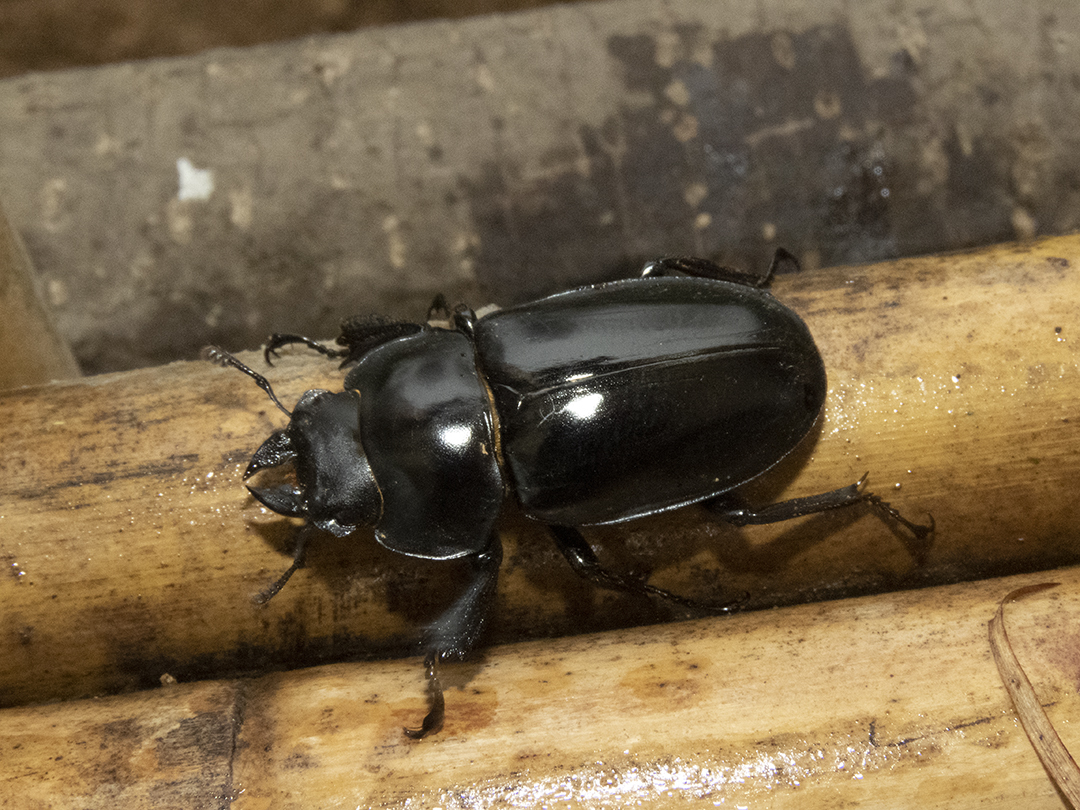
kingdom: Animalia
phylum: Arthropoda
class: Insecta
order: Coleoptera
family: Lucanidae
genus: Odontolabis
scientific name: Odontolabis siva
